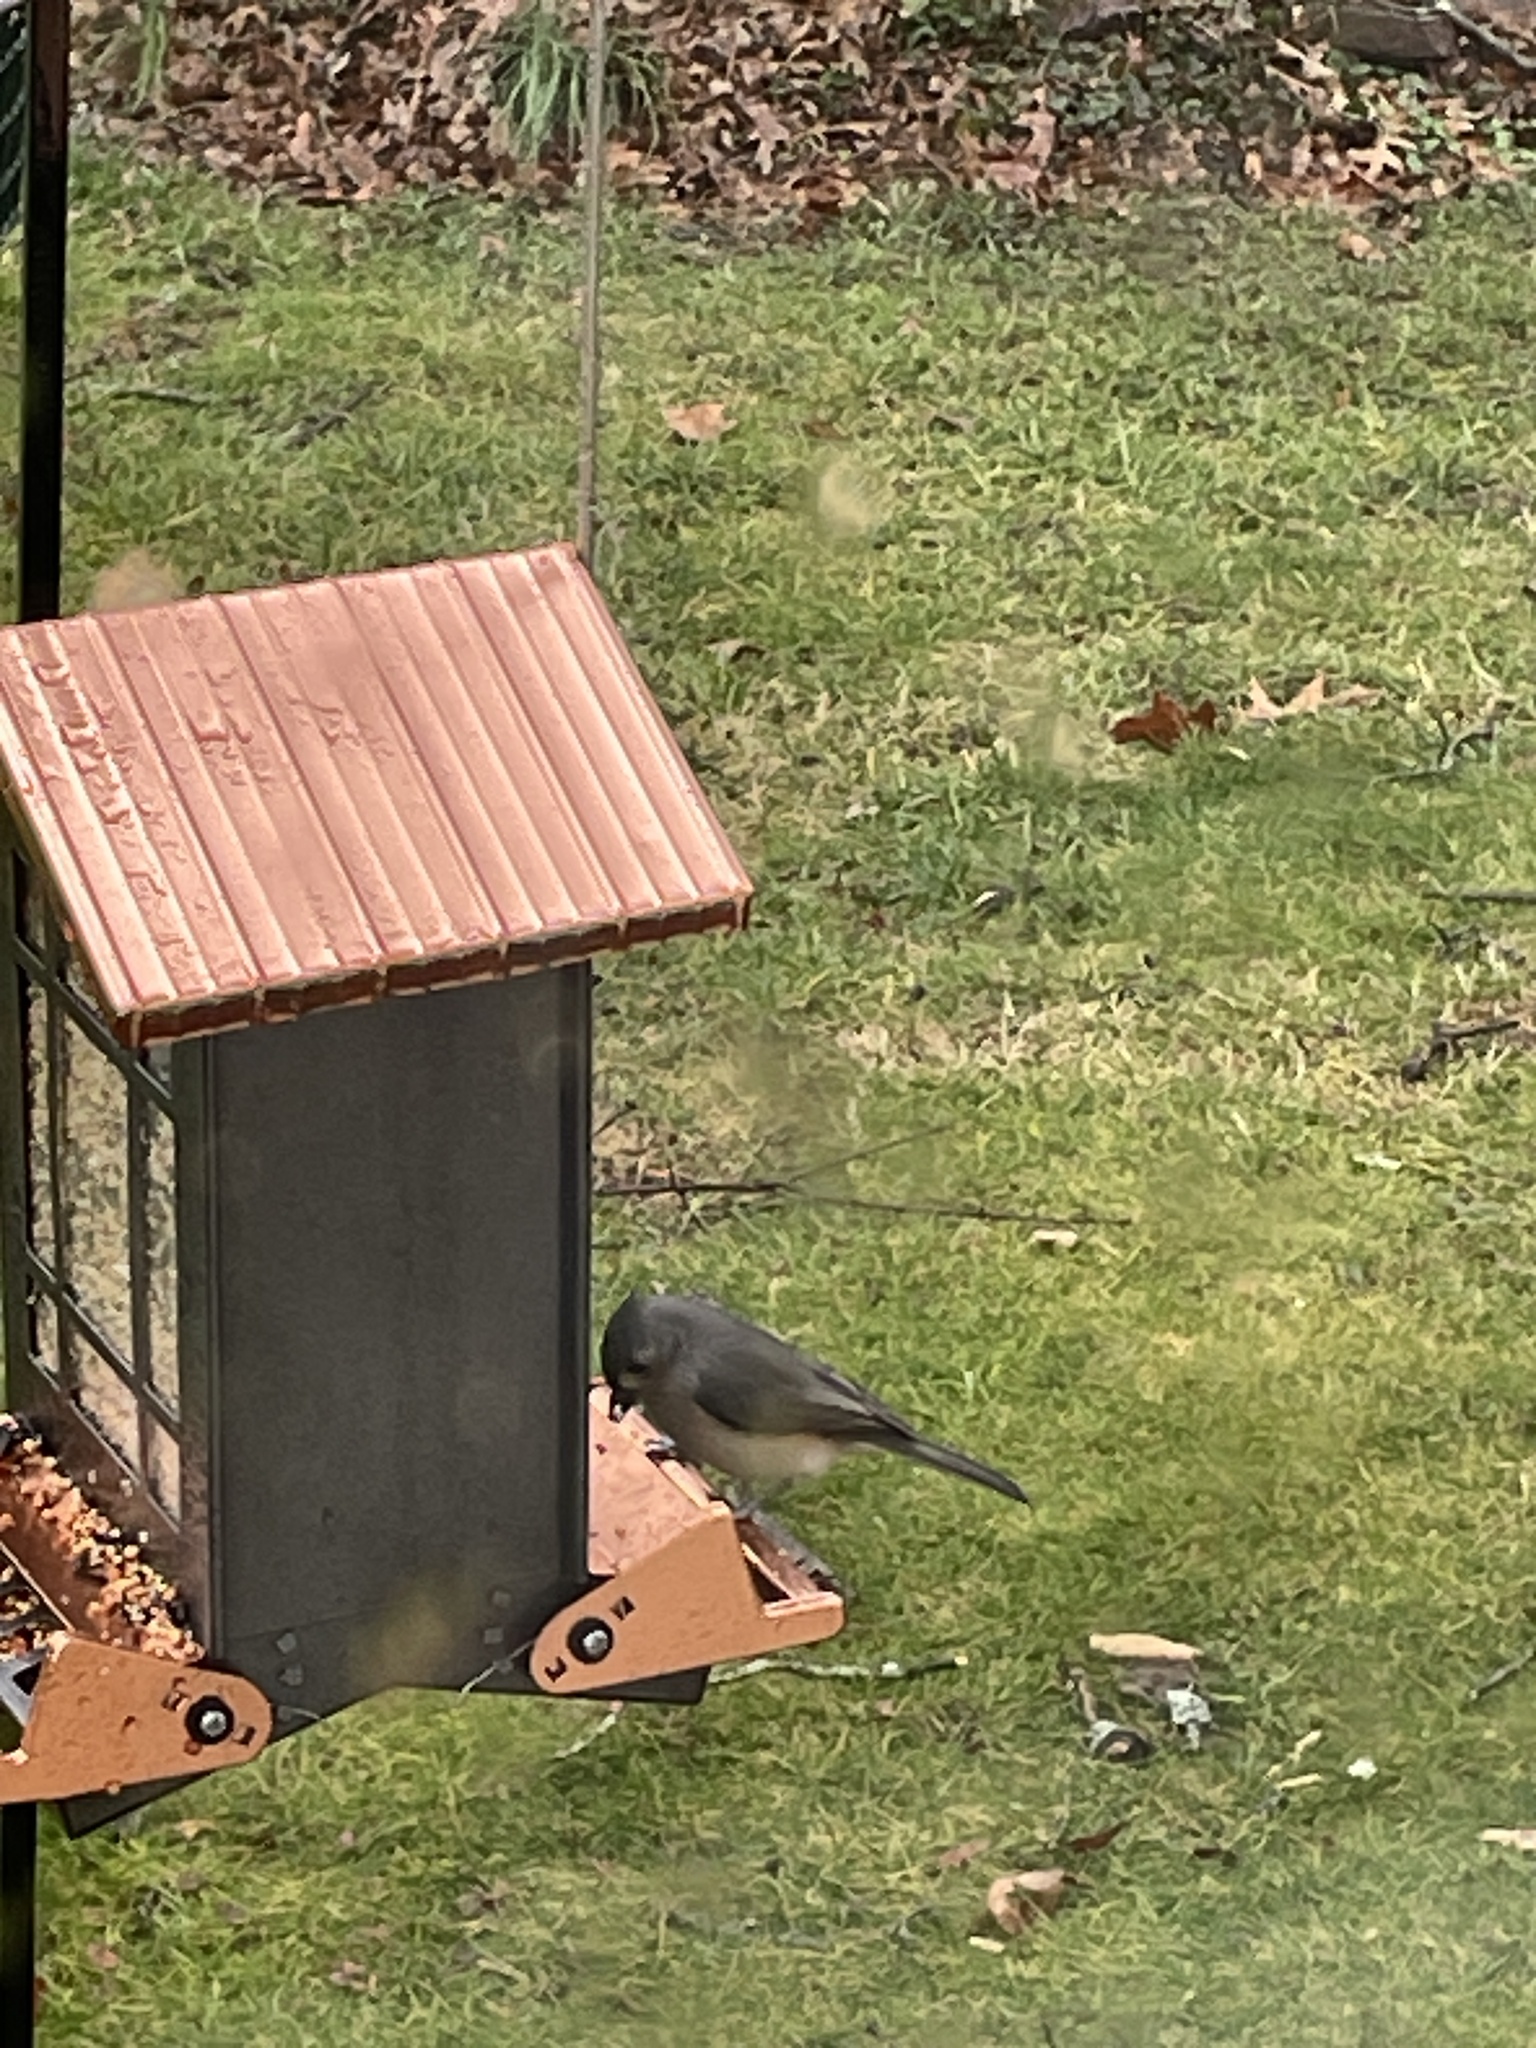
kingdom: Animalia
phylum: Chordata
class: Aves
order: Passeriformes
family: Paridae
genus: Baeolophus
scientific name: Baeolophus bicolor
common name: Tufted titmouse
